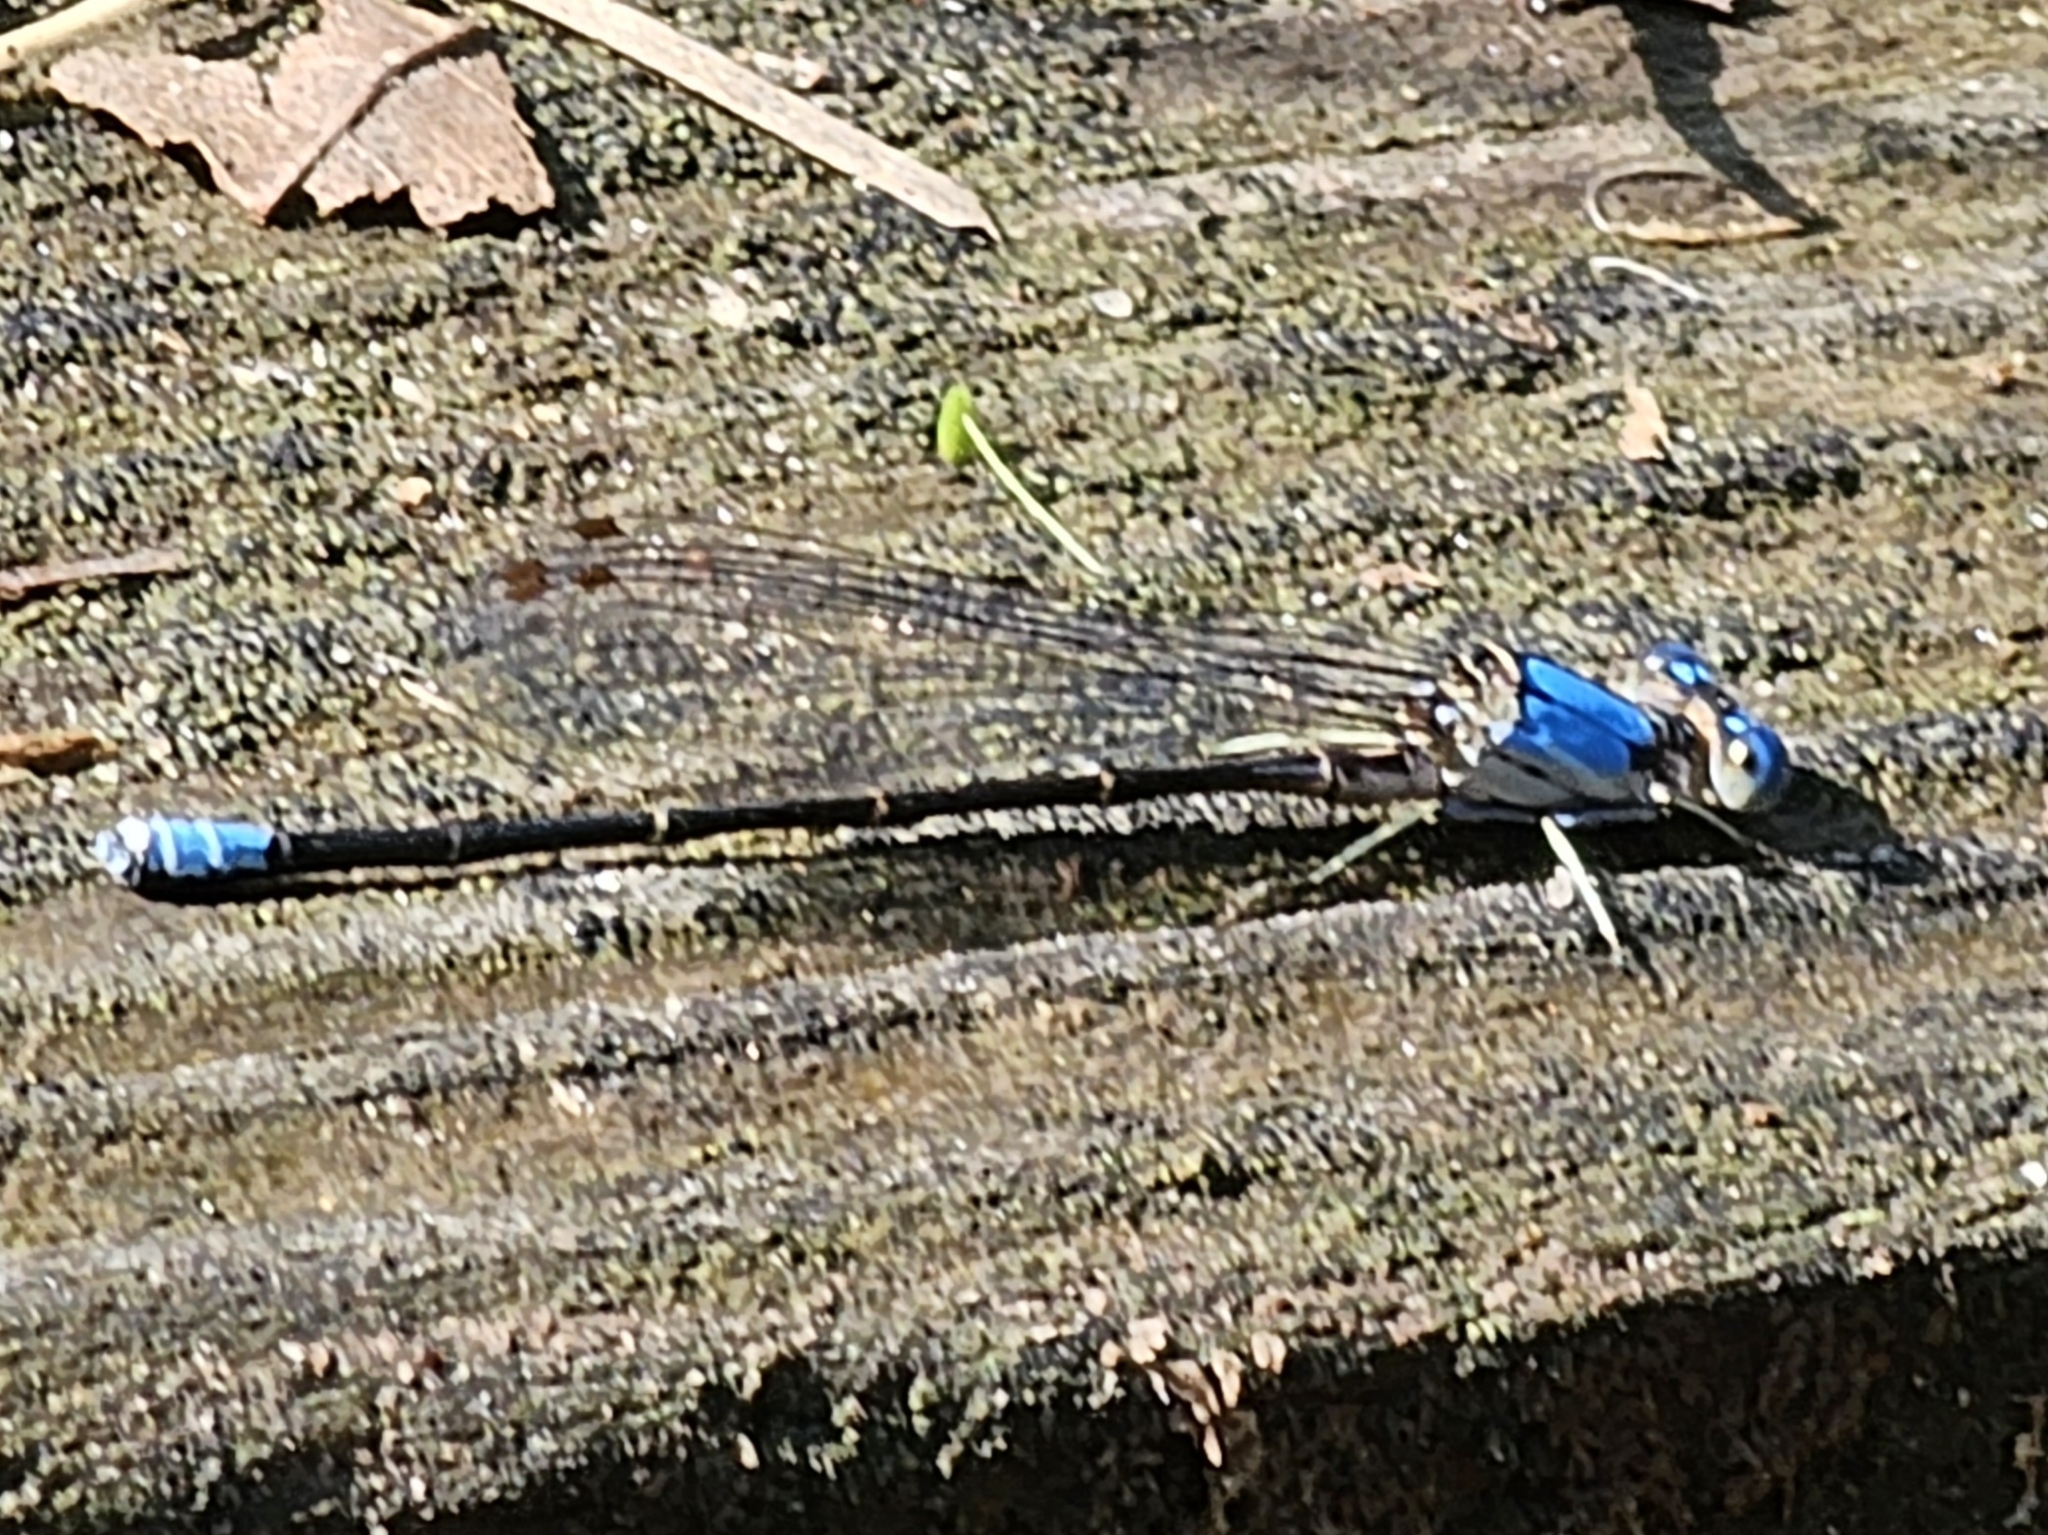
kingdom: Animalia
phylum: Arthropoda
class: Insecta
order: Odonata
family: Coenagrionidae
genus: Argia
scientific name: Argia apicalis
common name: Blue-fronted dancer
